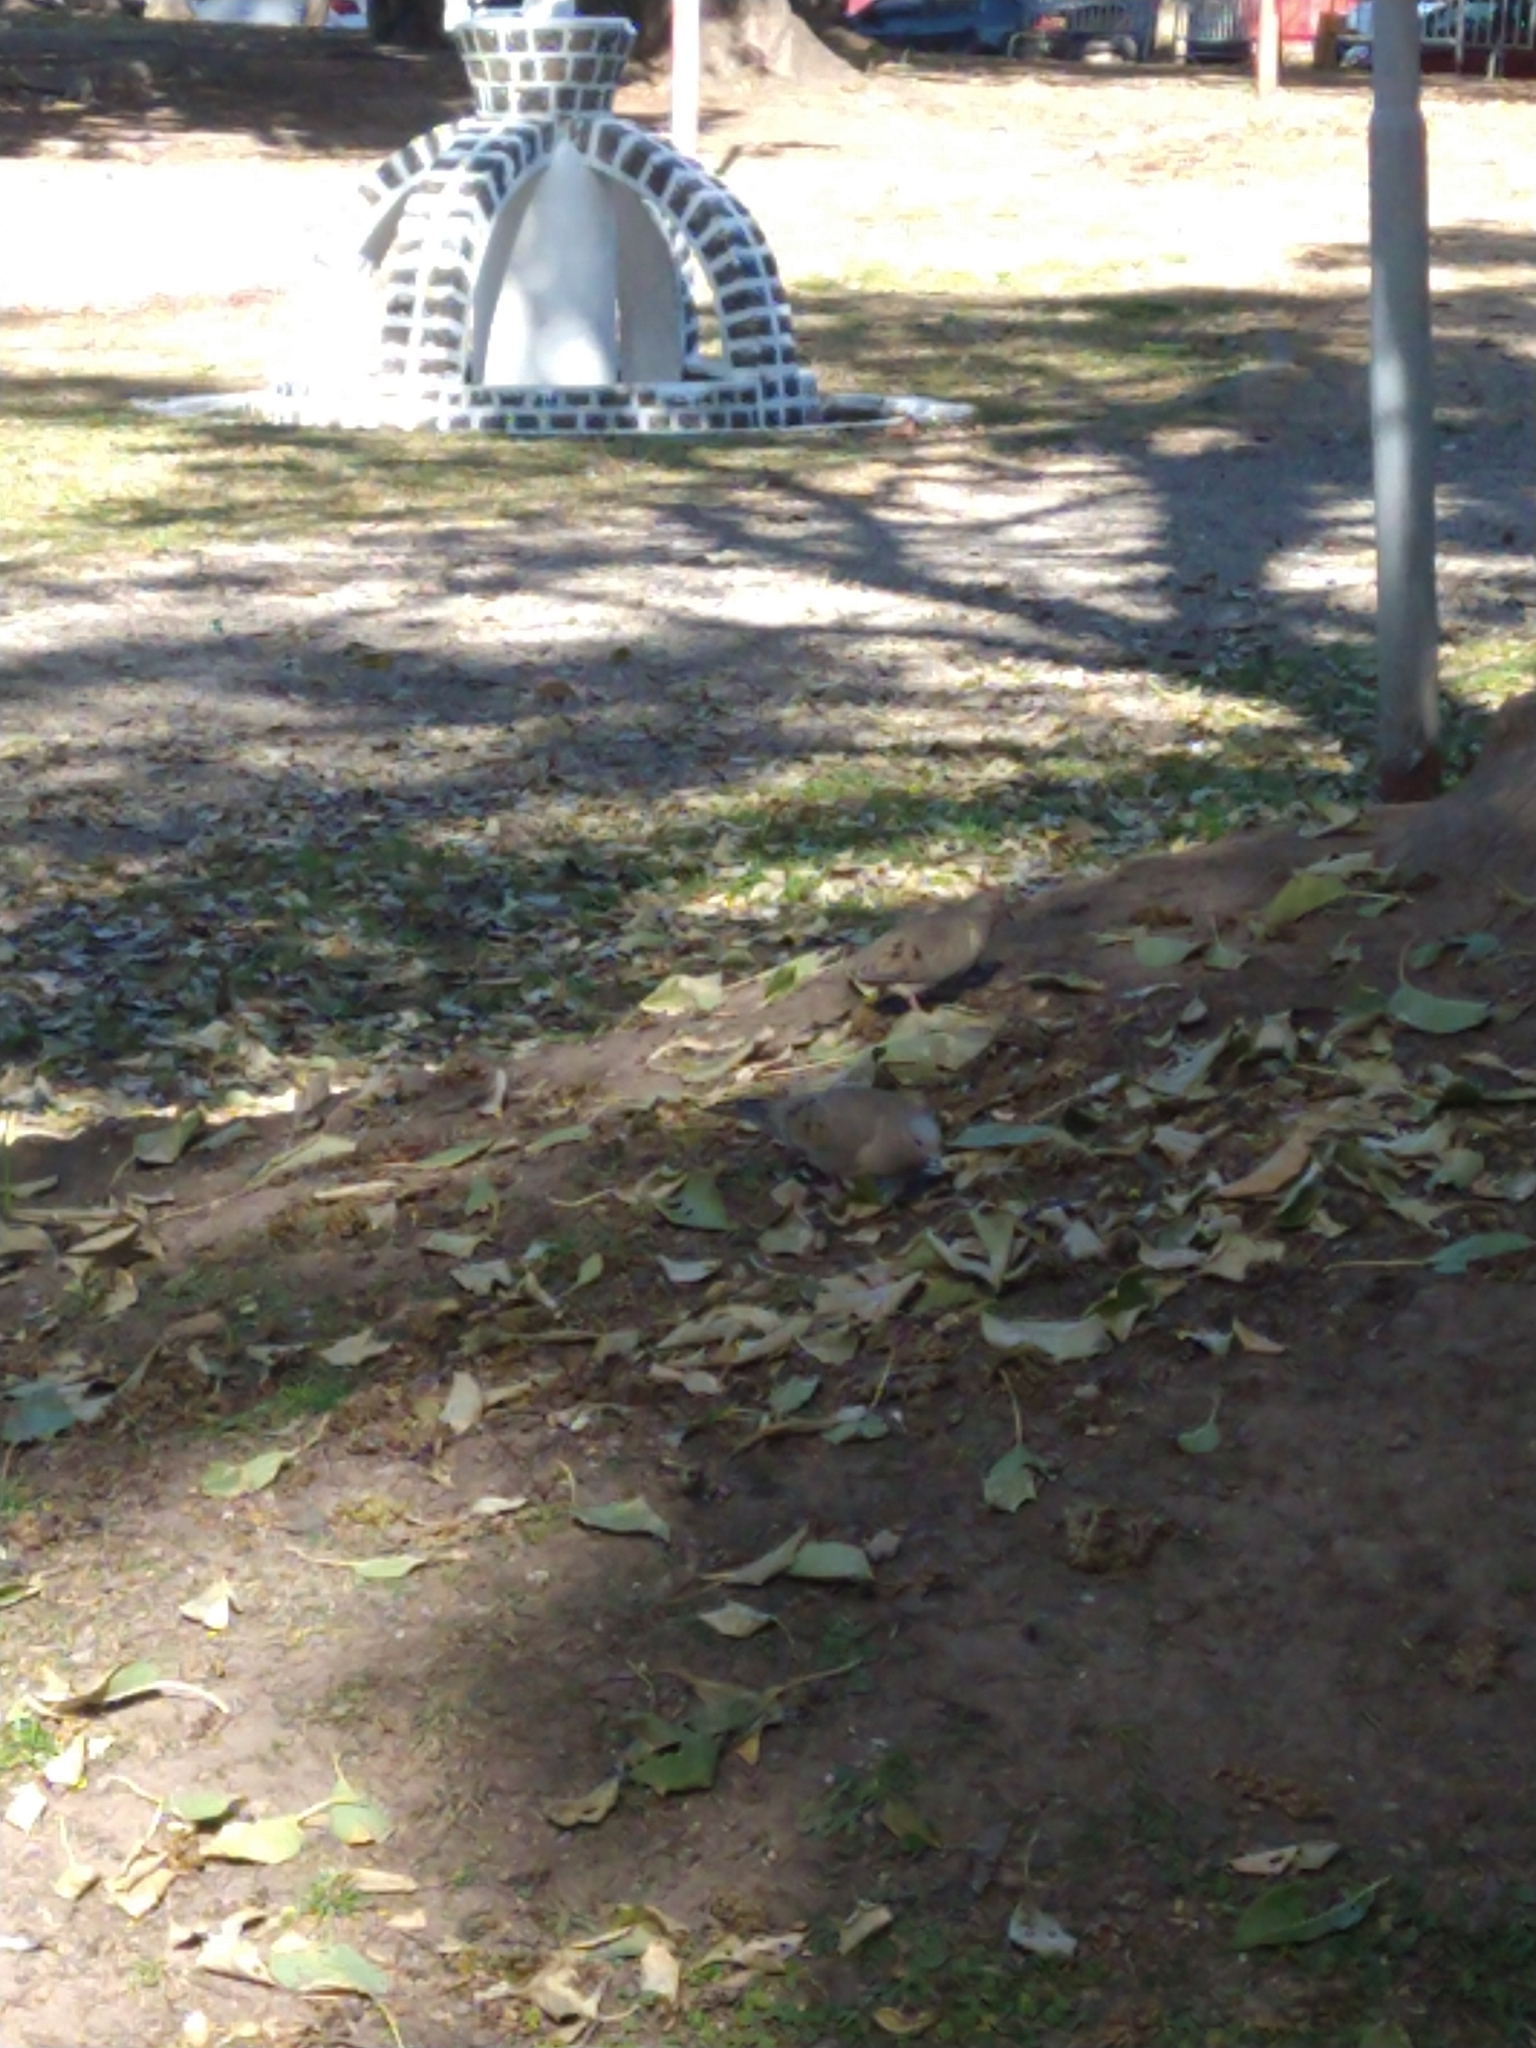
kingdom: Animalia
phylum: Chordata
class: Aves
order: Columbiformes
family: Columbidae
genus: Zenaida
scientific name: Zenaida auriculata
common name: Eared dove
